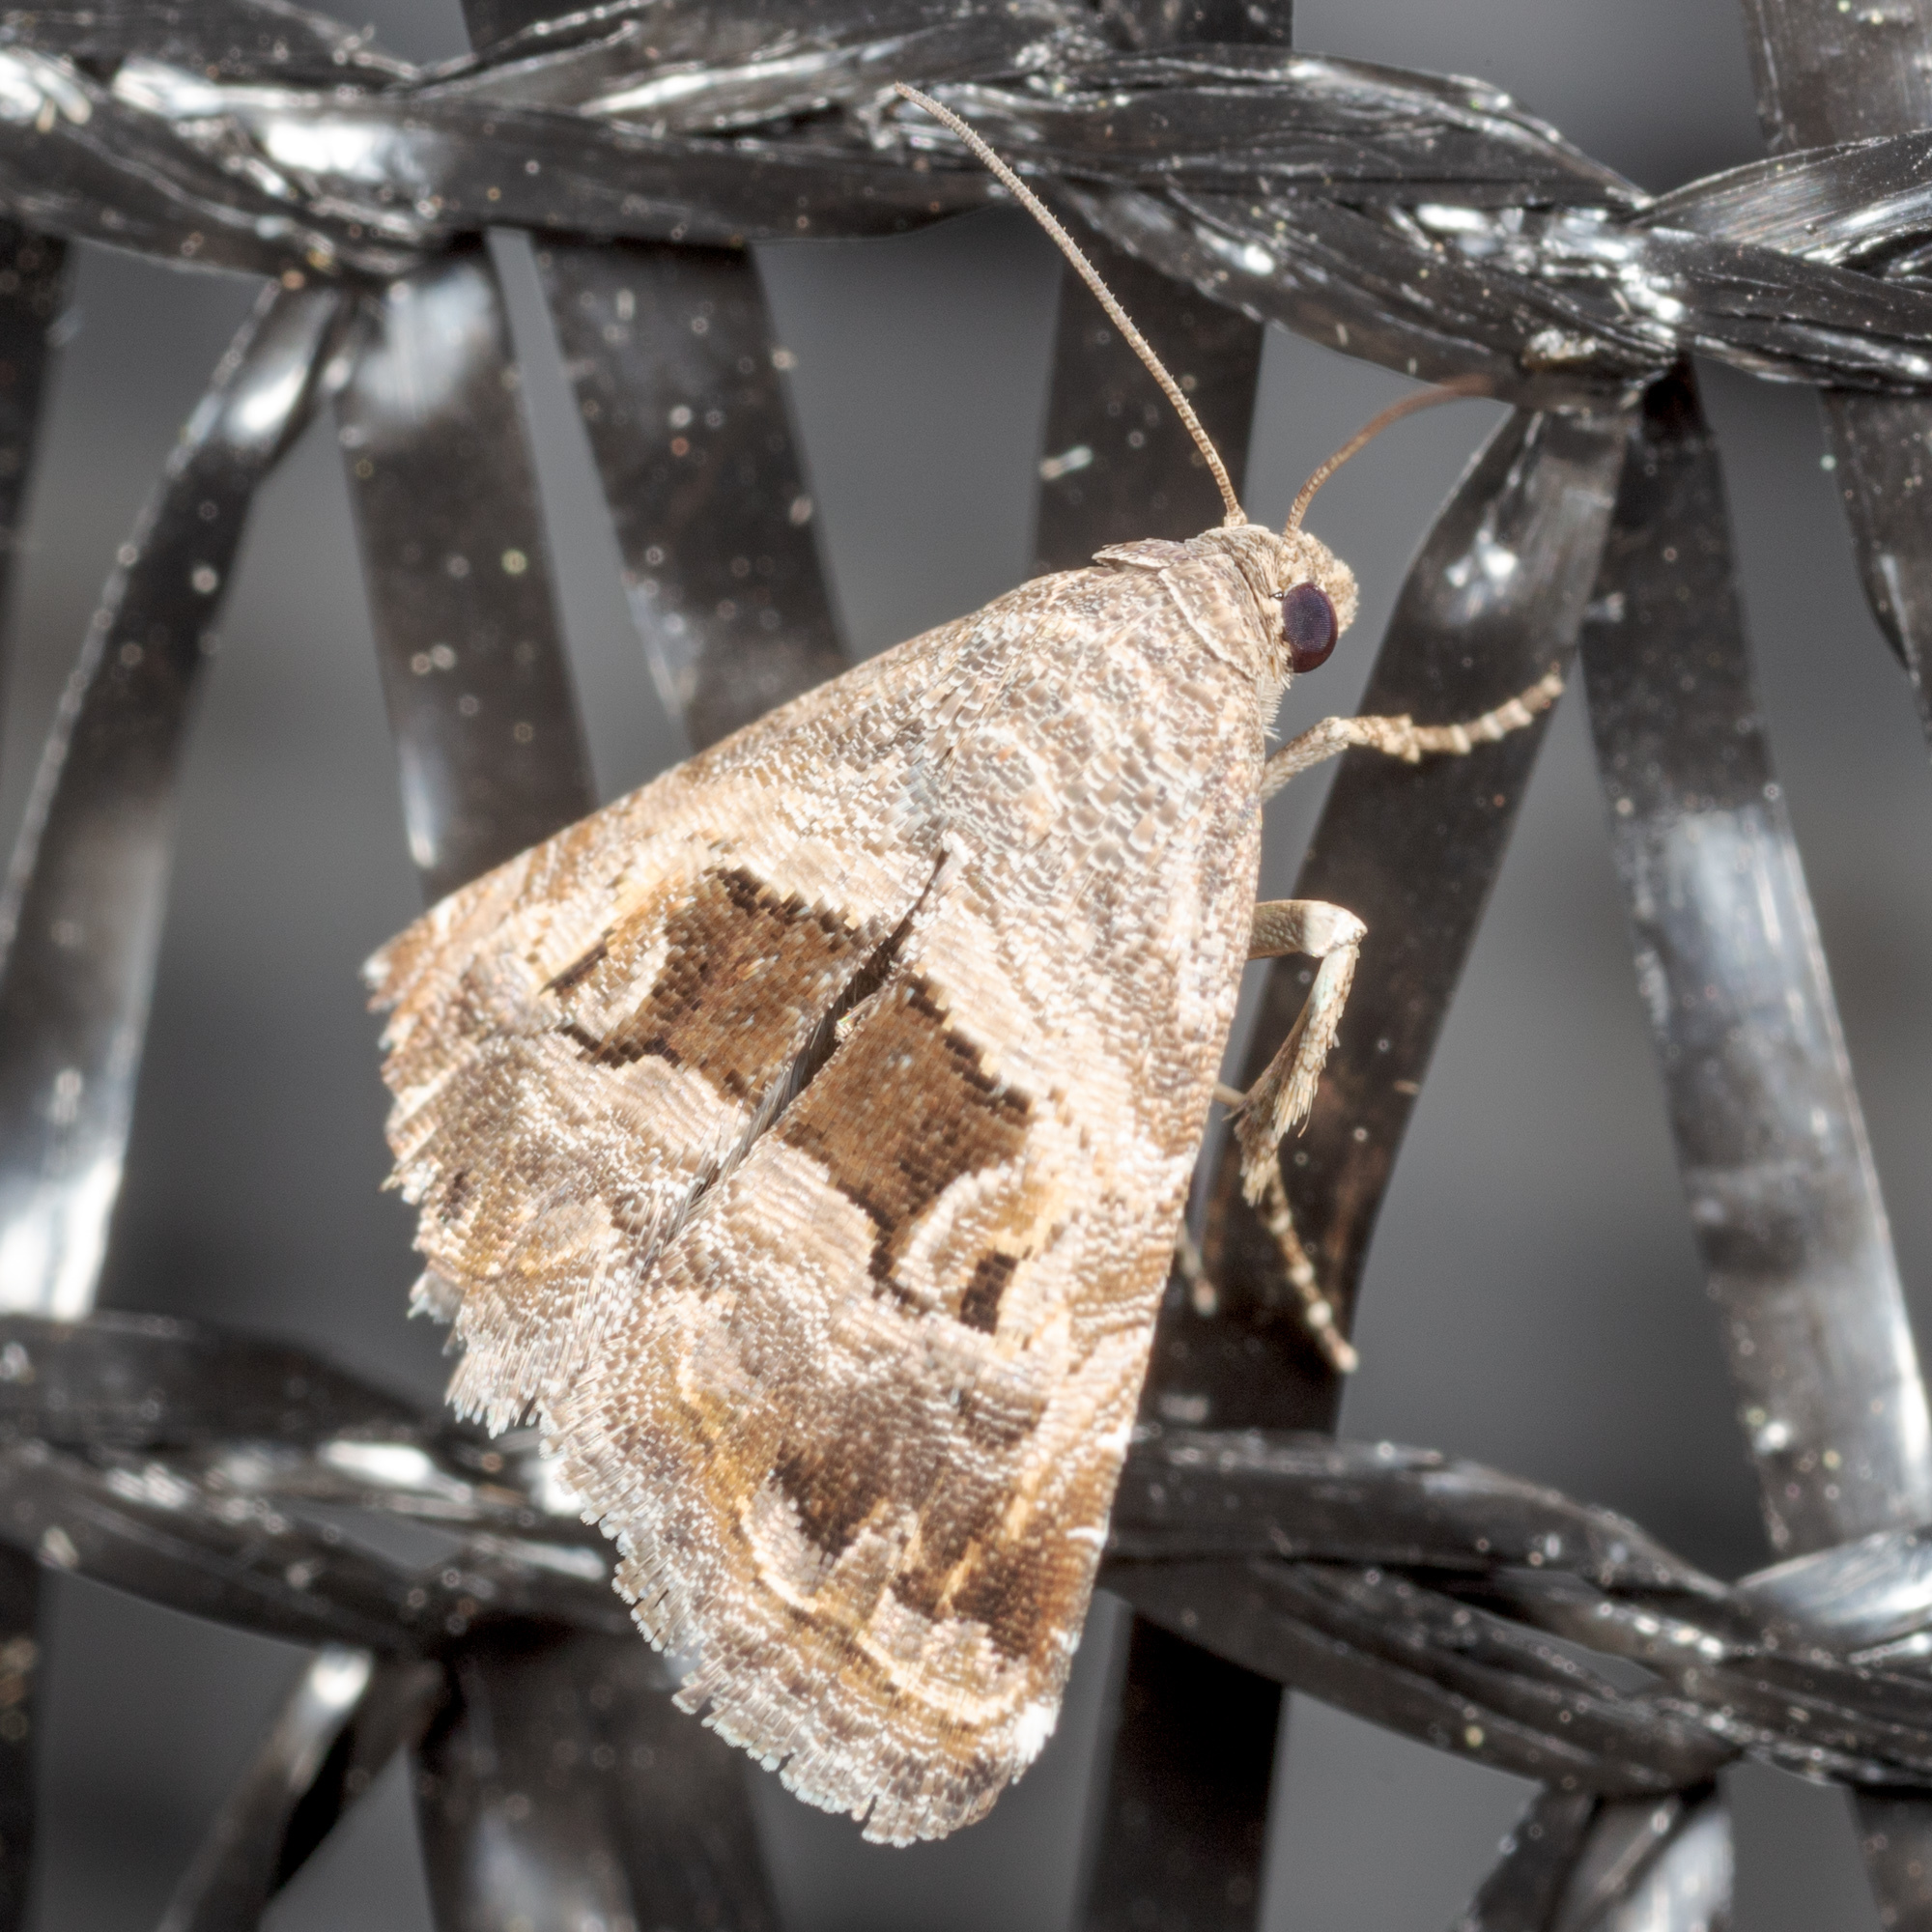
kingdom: Animalia
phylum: Arthropoda
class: Insecta
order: Lepidoptera
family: Noctuidae
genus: Tripudia
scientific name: Tripudia quadrifera
